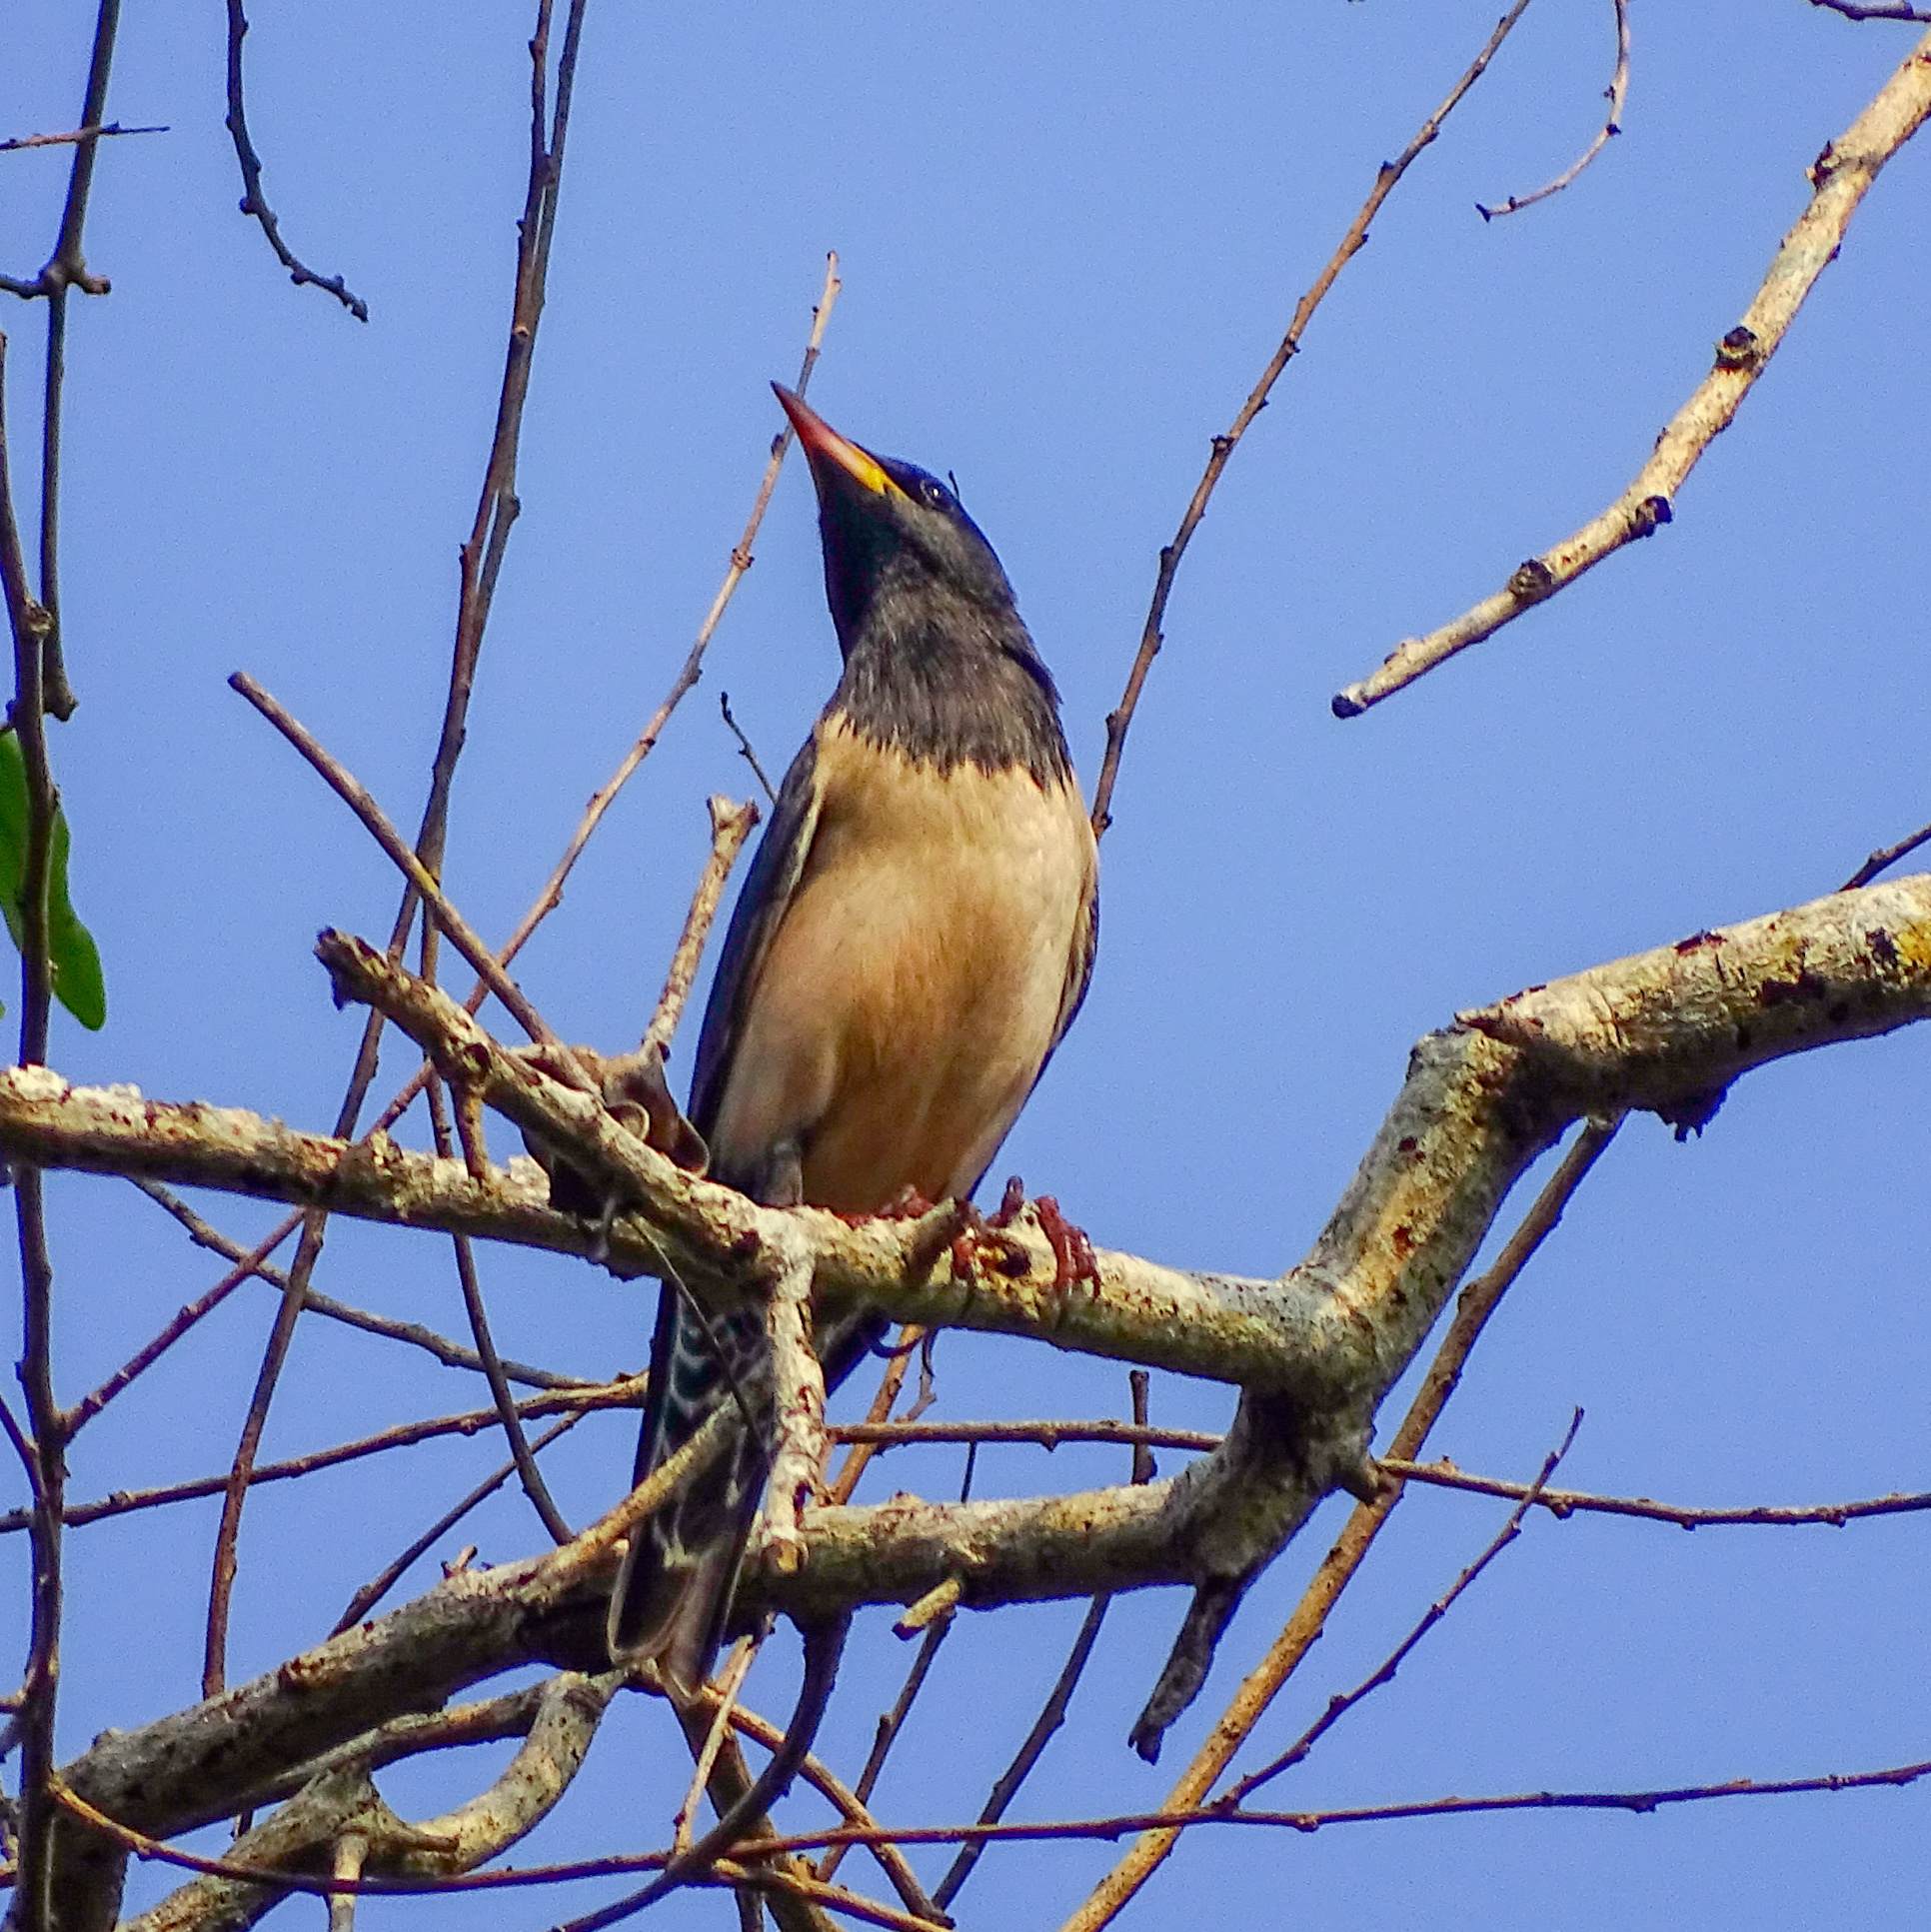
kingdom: Animalia
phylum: Chordata
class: Aves
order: Passeriformes
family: Sturnidae
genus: Pastor
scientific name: Pastor roseus
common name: Rosy starling
